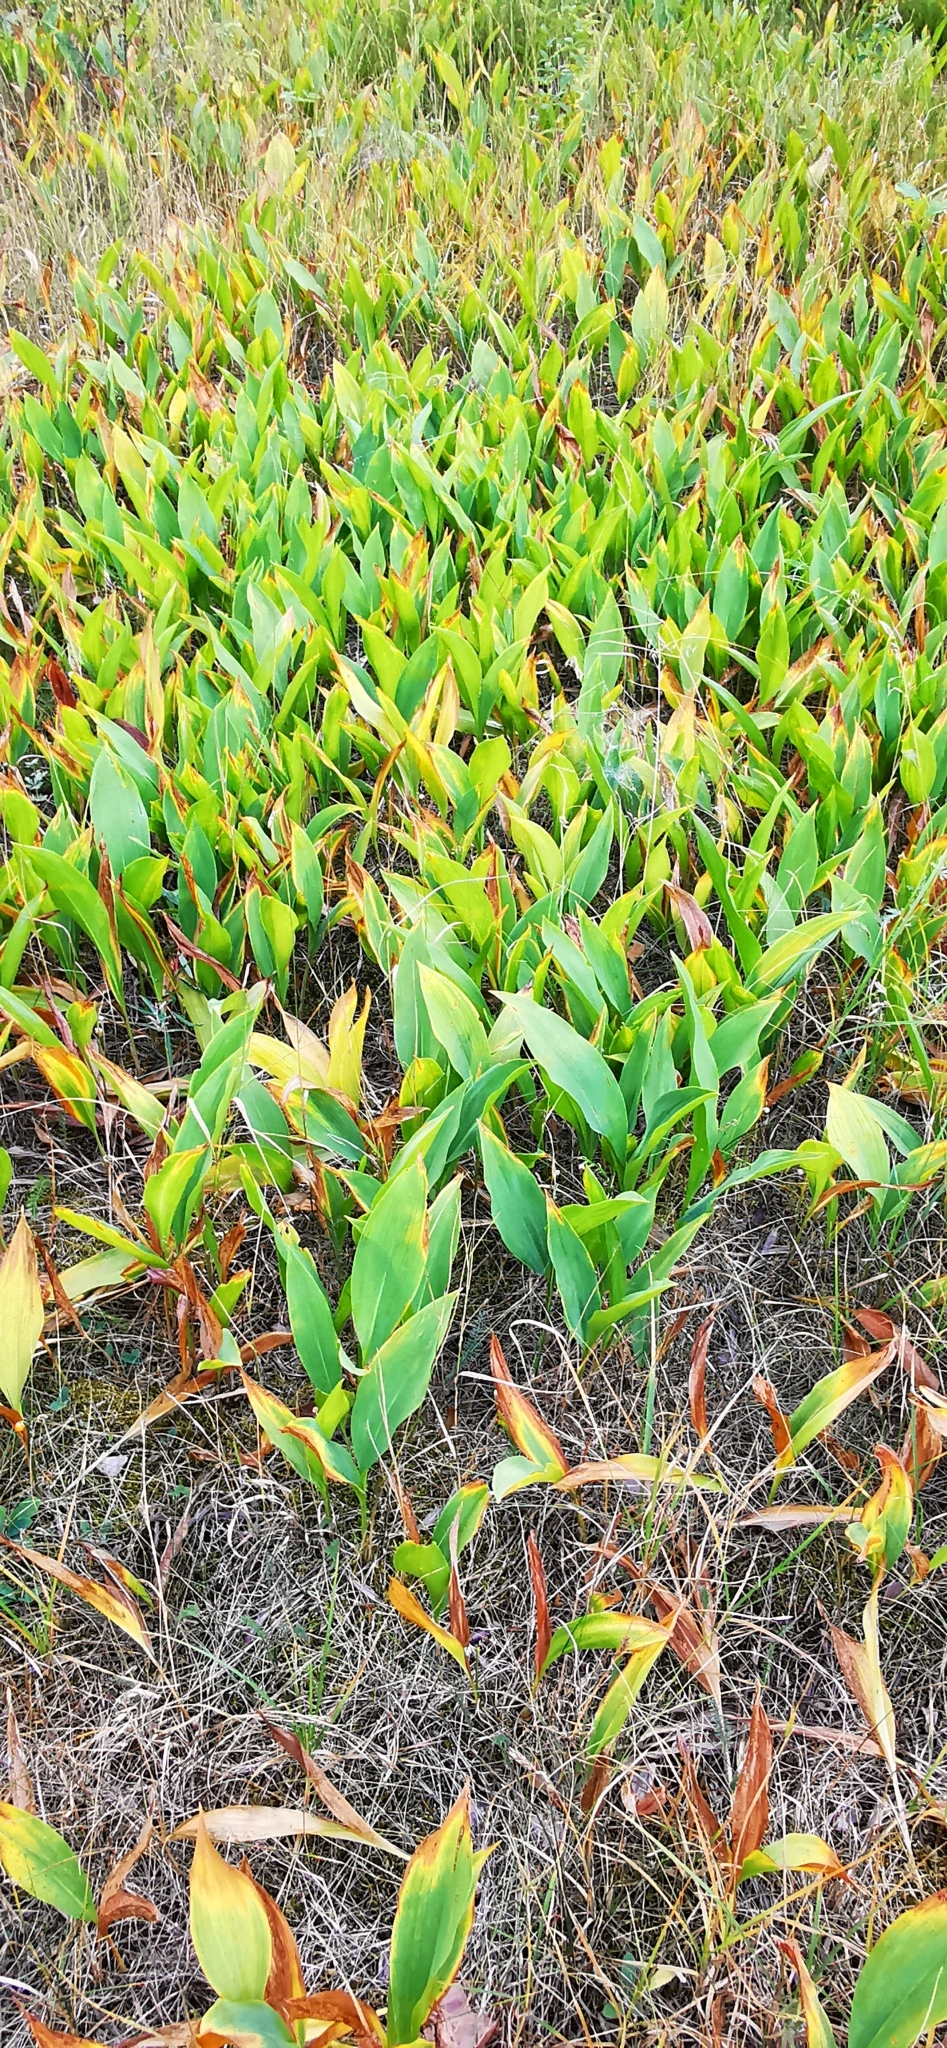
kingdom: Plantae
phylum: Tracheophyta
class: Liliopsida
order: Asparagales
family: Asparagaceae
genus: Convallaria
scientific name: Convallaria majalis
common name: Lily-of-the-valley
